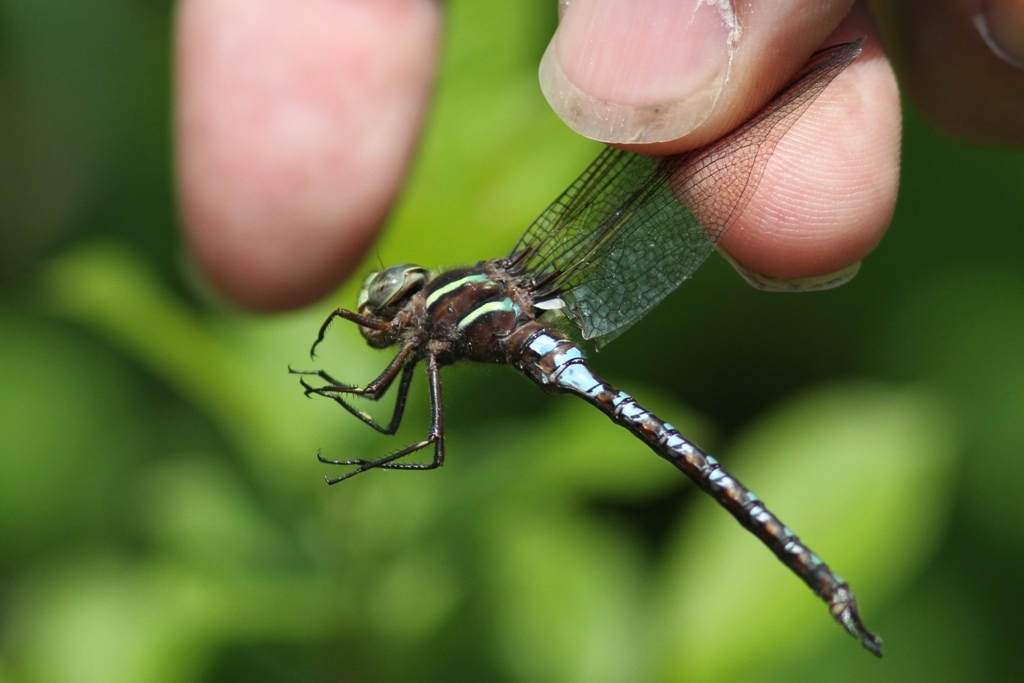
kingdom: Animalia
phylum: Arthropoda
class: Insecta
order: Odonata
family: Aeshnidae
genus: Basiaeschna
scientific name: Basiaeschna janata
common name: Springtime darner
